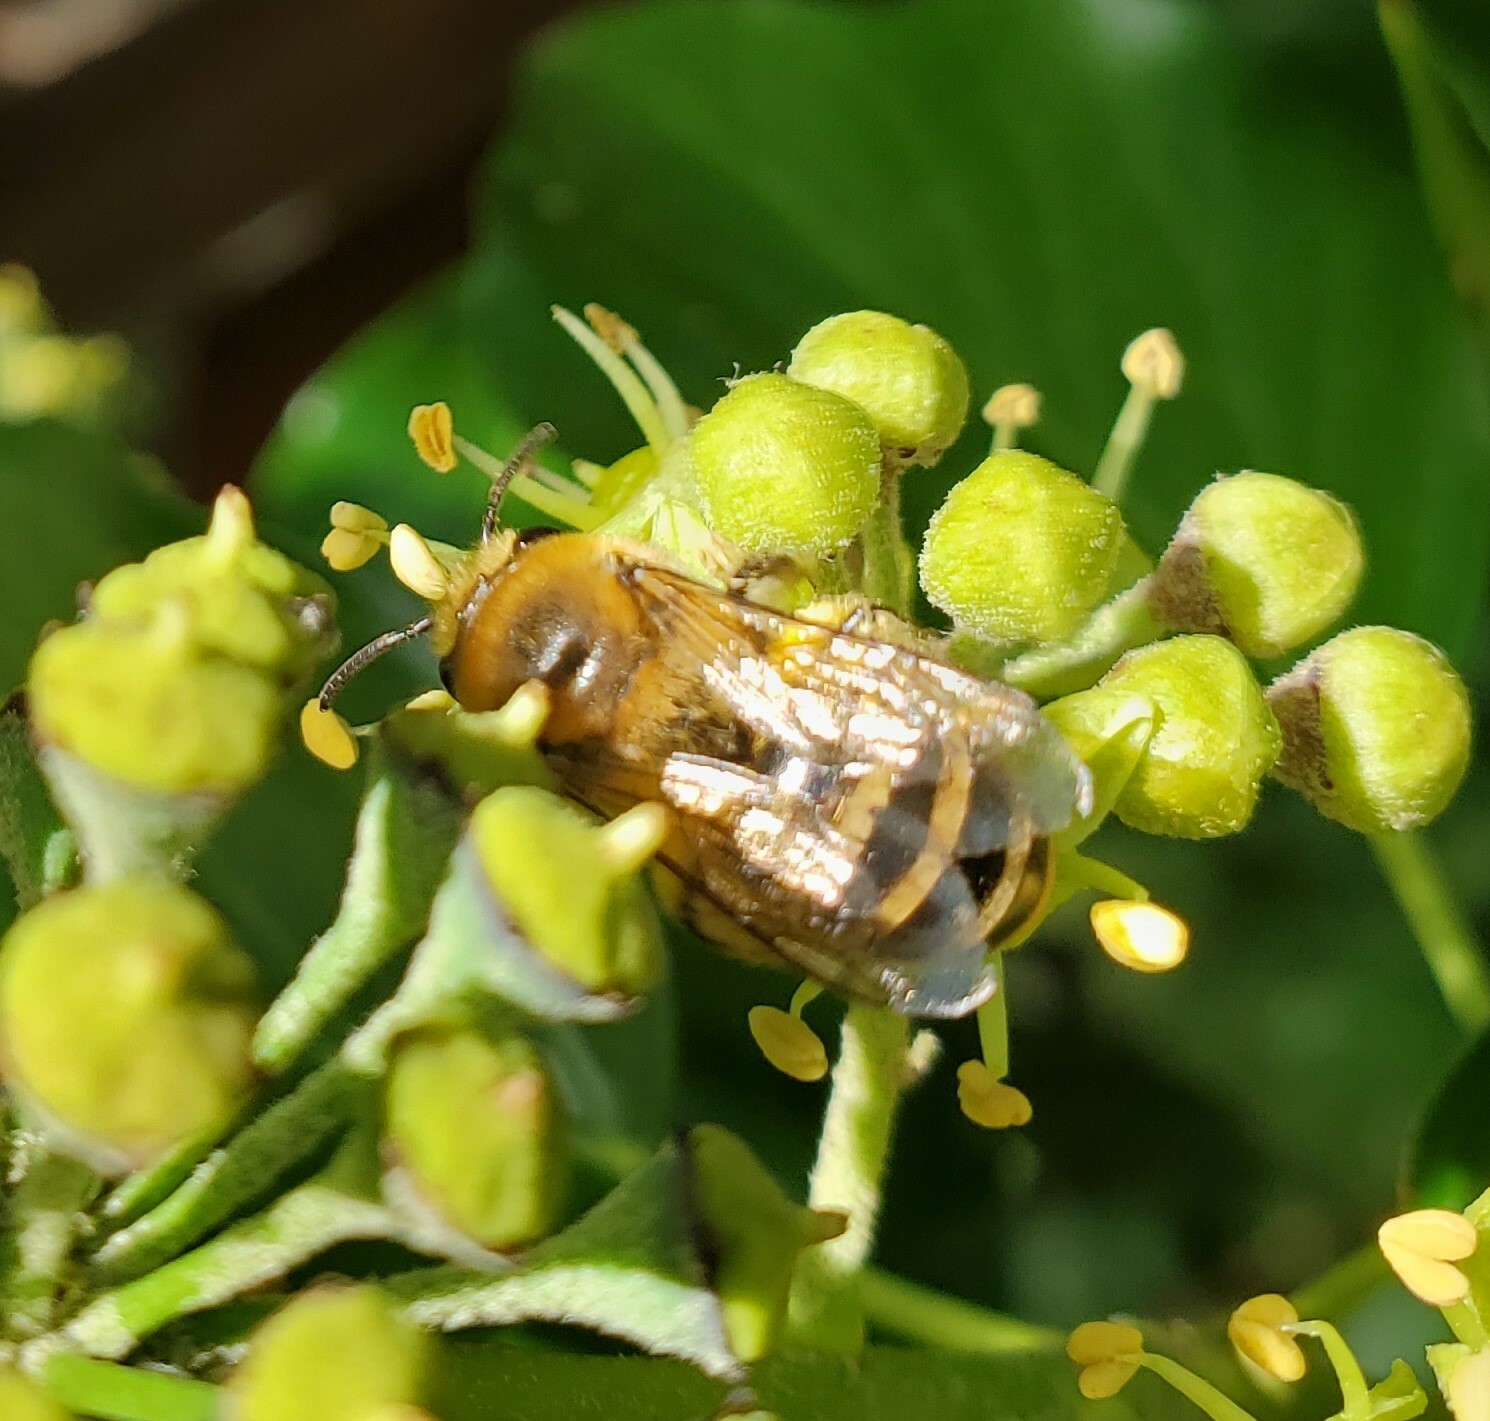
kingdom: Animalia
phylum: Arthropoda
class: Insecta
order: Hymenoptera
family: Colletidae
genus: Colletes
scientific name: Colletes hederae
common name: Ivy bee
